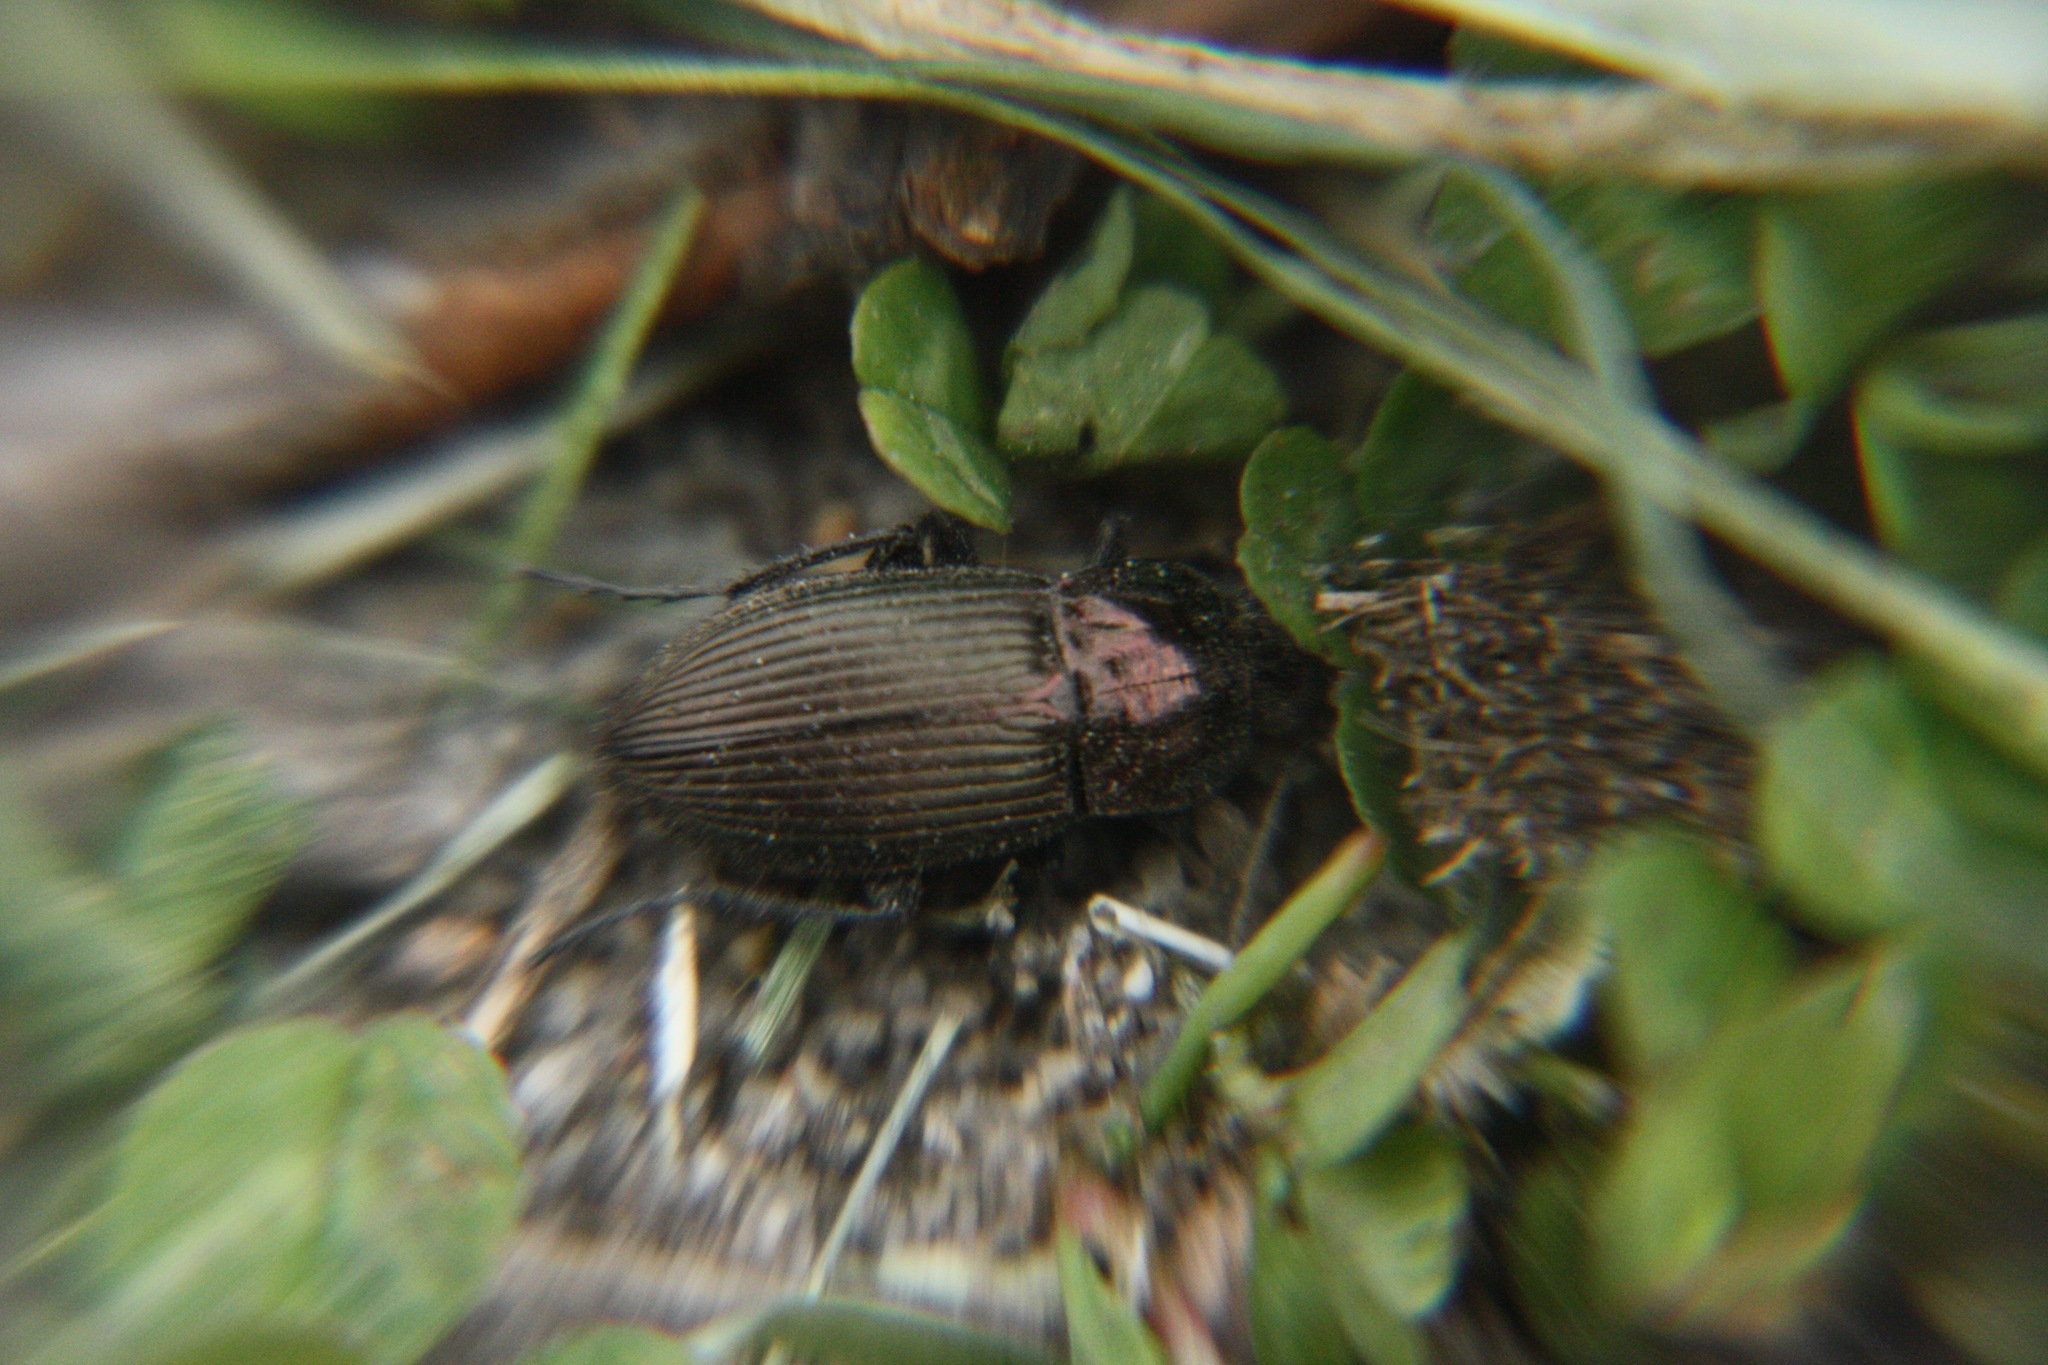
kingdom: Animalia
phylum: Arthropoda
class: Insecta
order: Coleoptera
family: Carabidae
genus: Poecilus
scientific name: Poecilus
